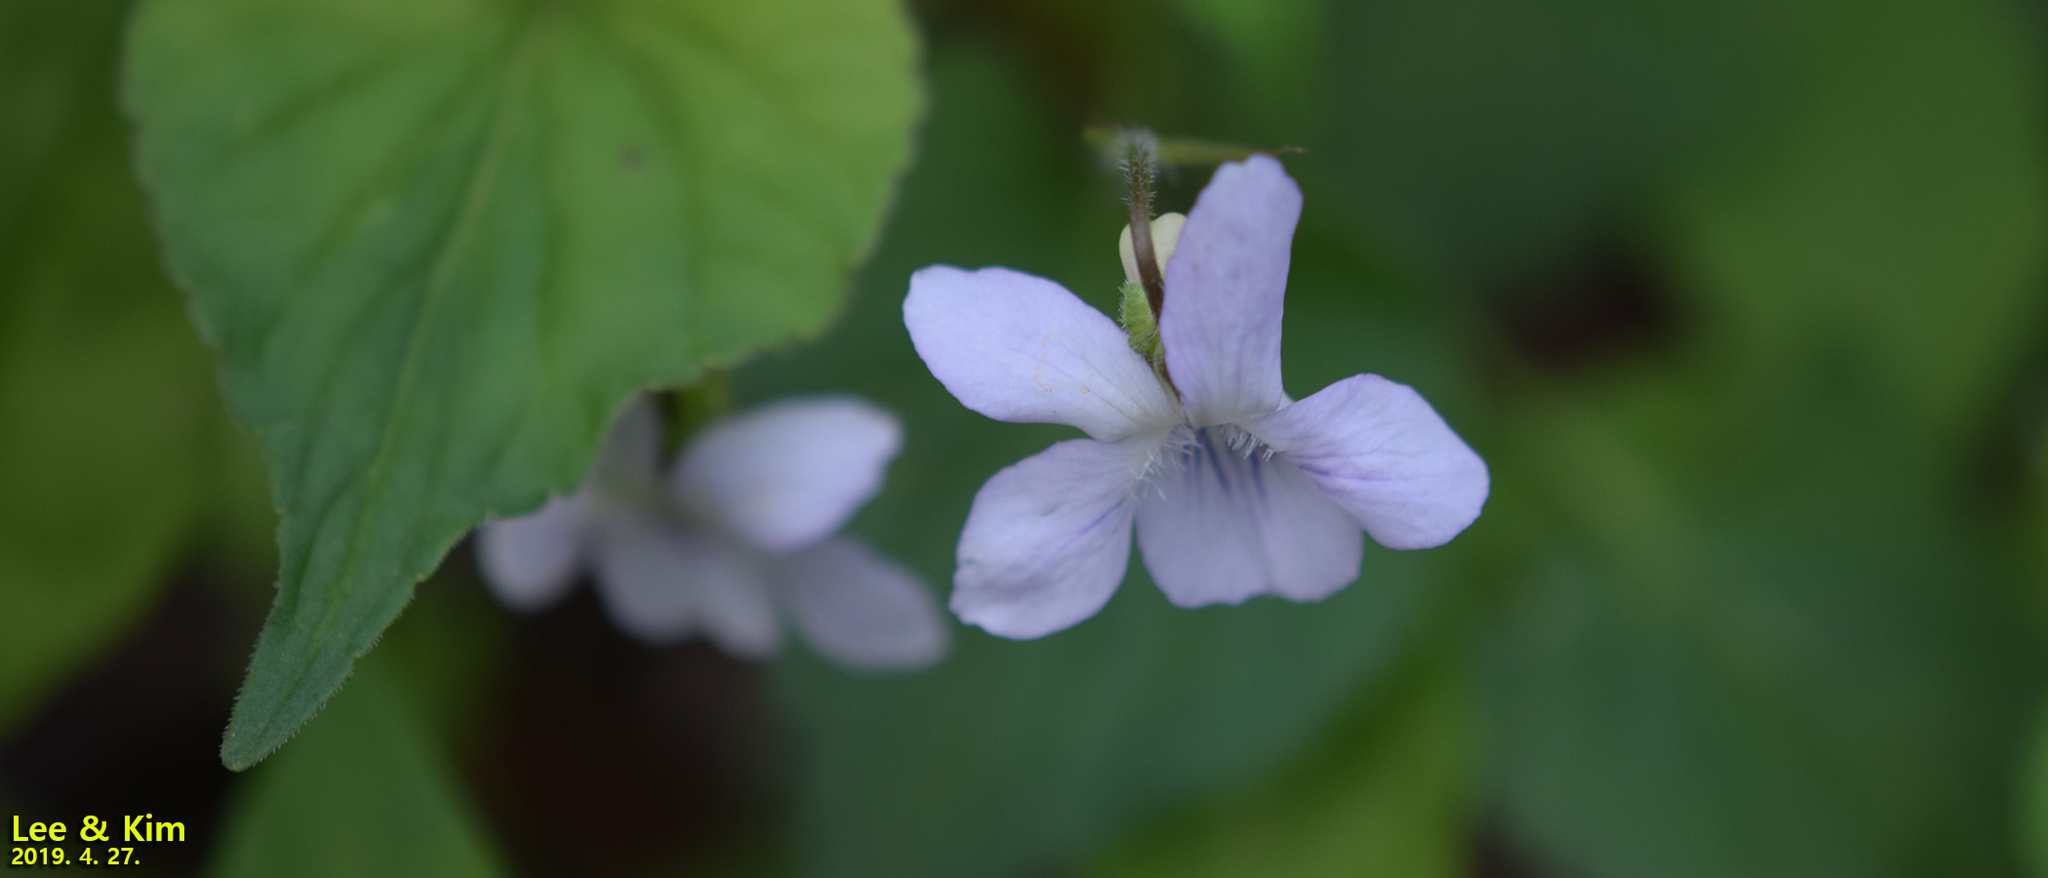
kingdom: Plantae
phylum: Tracheophyta
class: Magnoliopsida
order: Malpighiales
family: Violaceae
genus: Viola
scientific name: Viola acuminata
